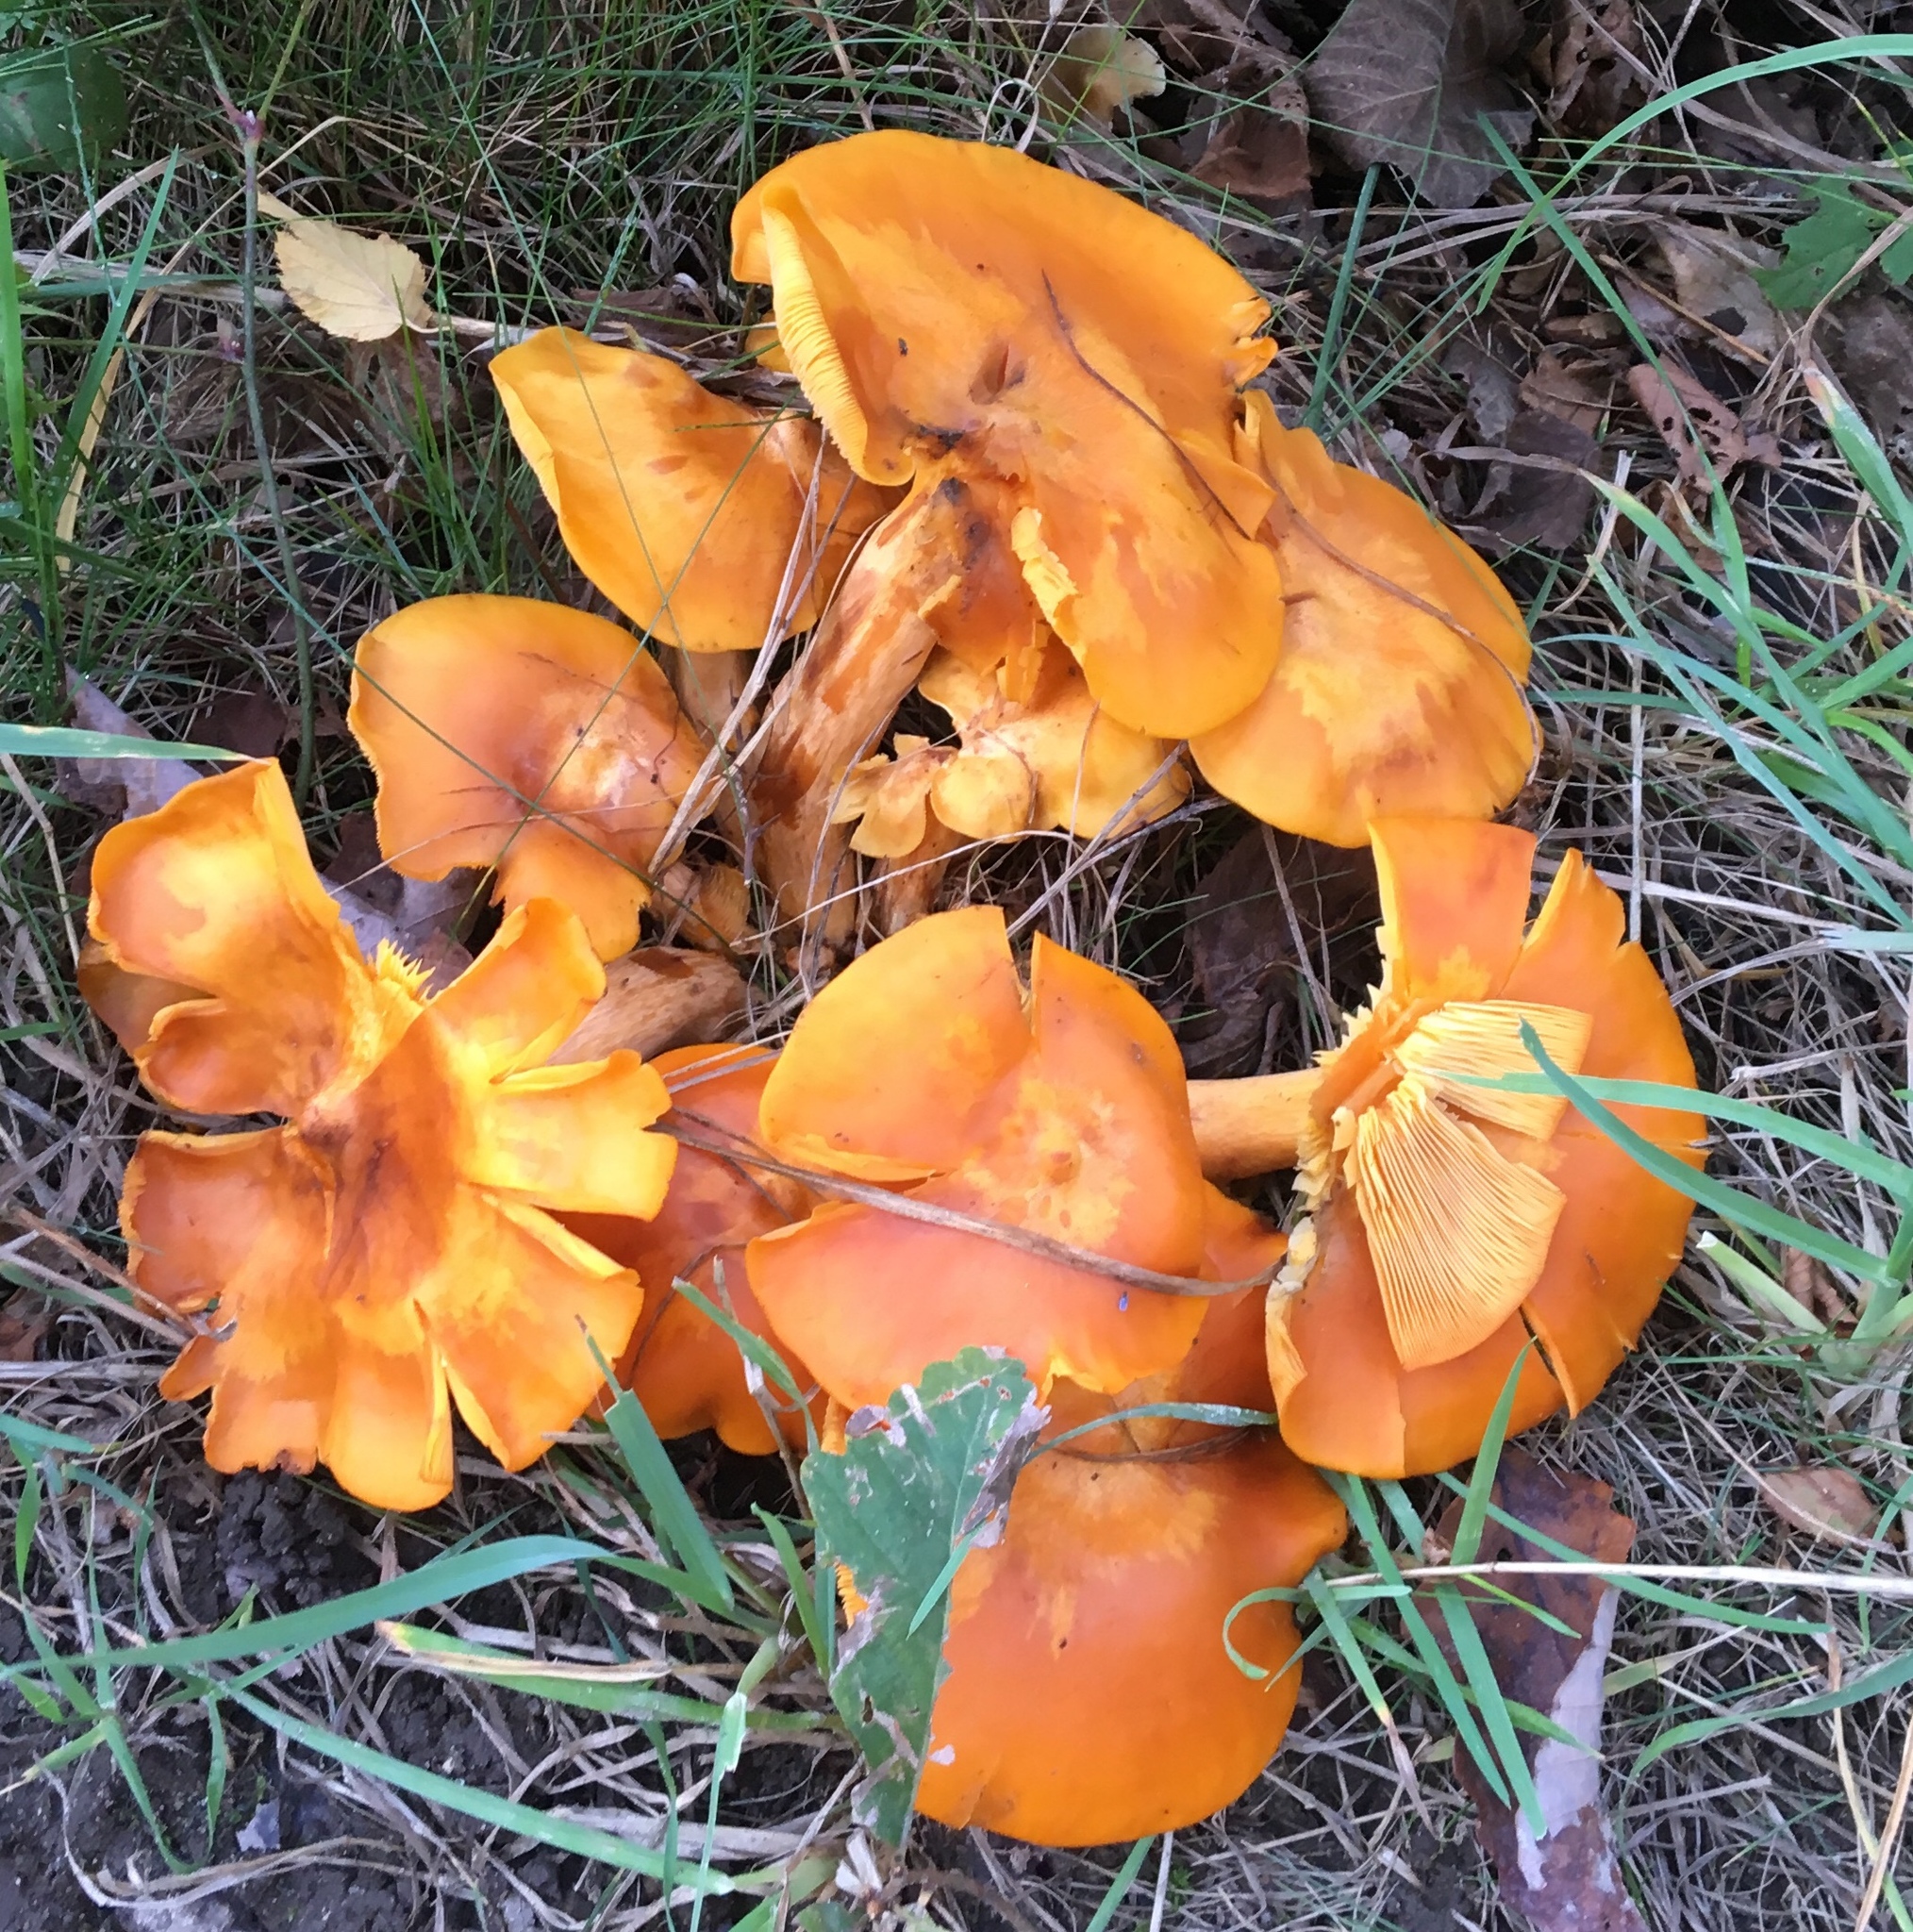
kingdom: Fungi
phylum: Basidiomycota
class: Agaricomycetes
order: Agaricales
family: Omphalotaceae
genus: Omphalotus
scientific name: Omphalotus illudens
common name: Jack o lantern
